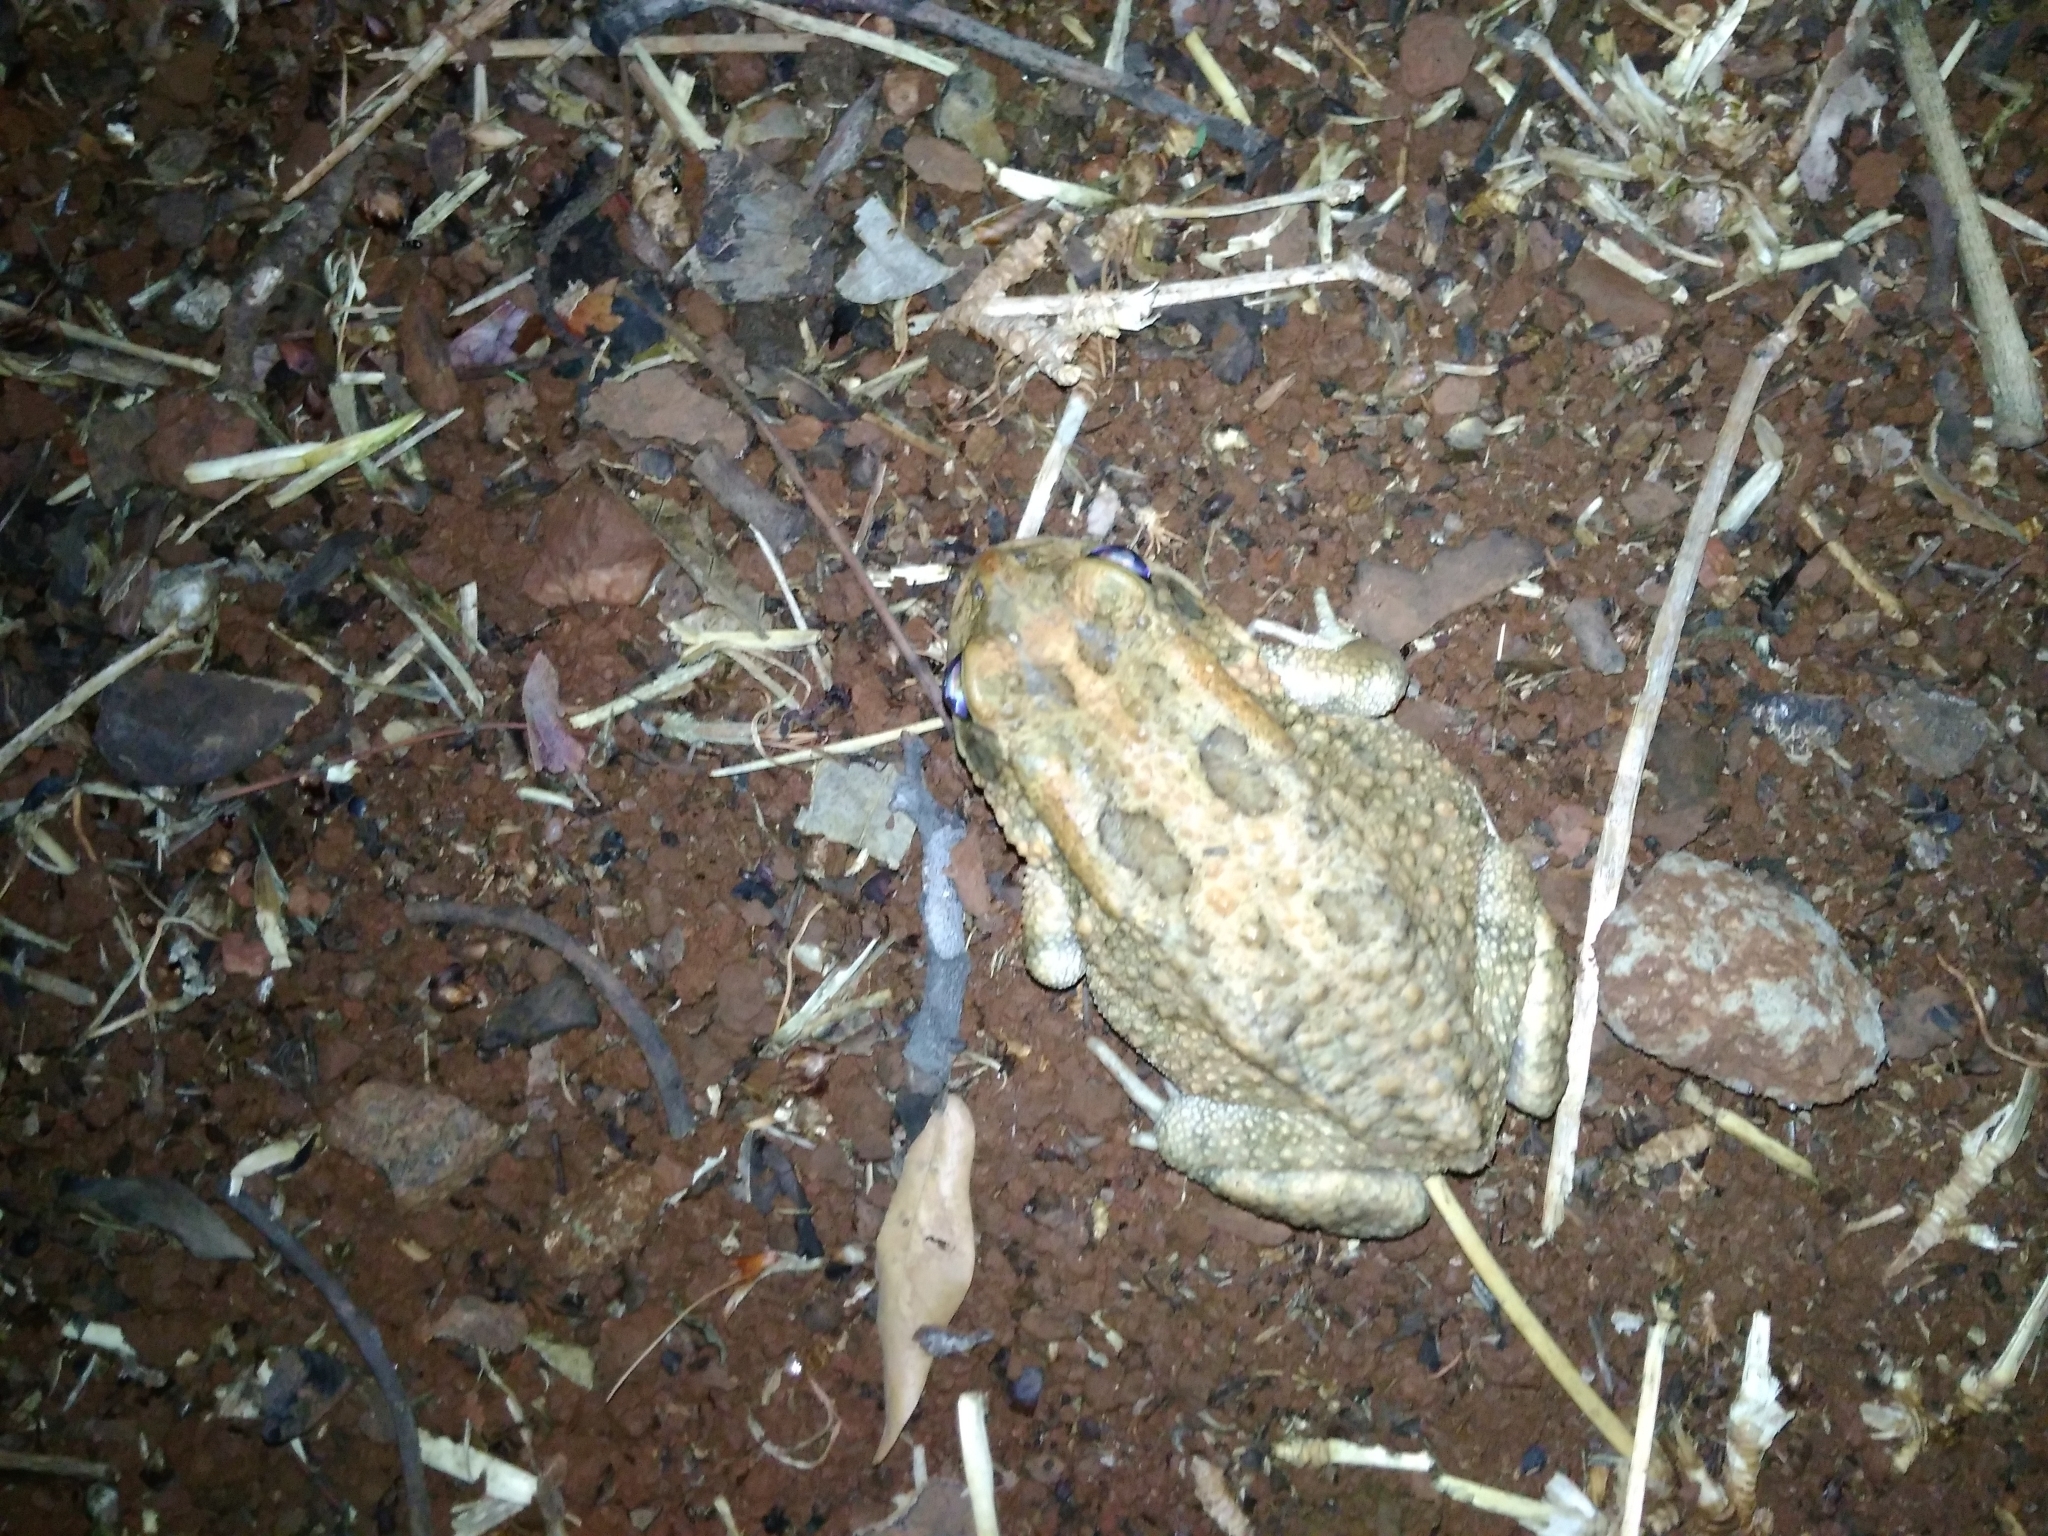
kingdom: Animalia
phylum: Chordata
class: Amphibia
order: Anura
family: Bufonidae
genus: Sclerophrys
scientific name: Sclerophrys gutturalis
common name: African common toad
